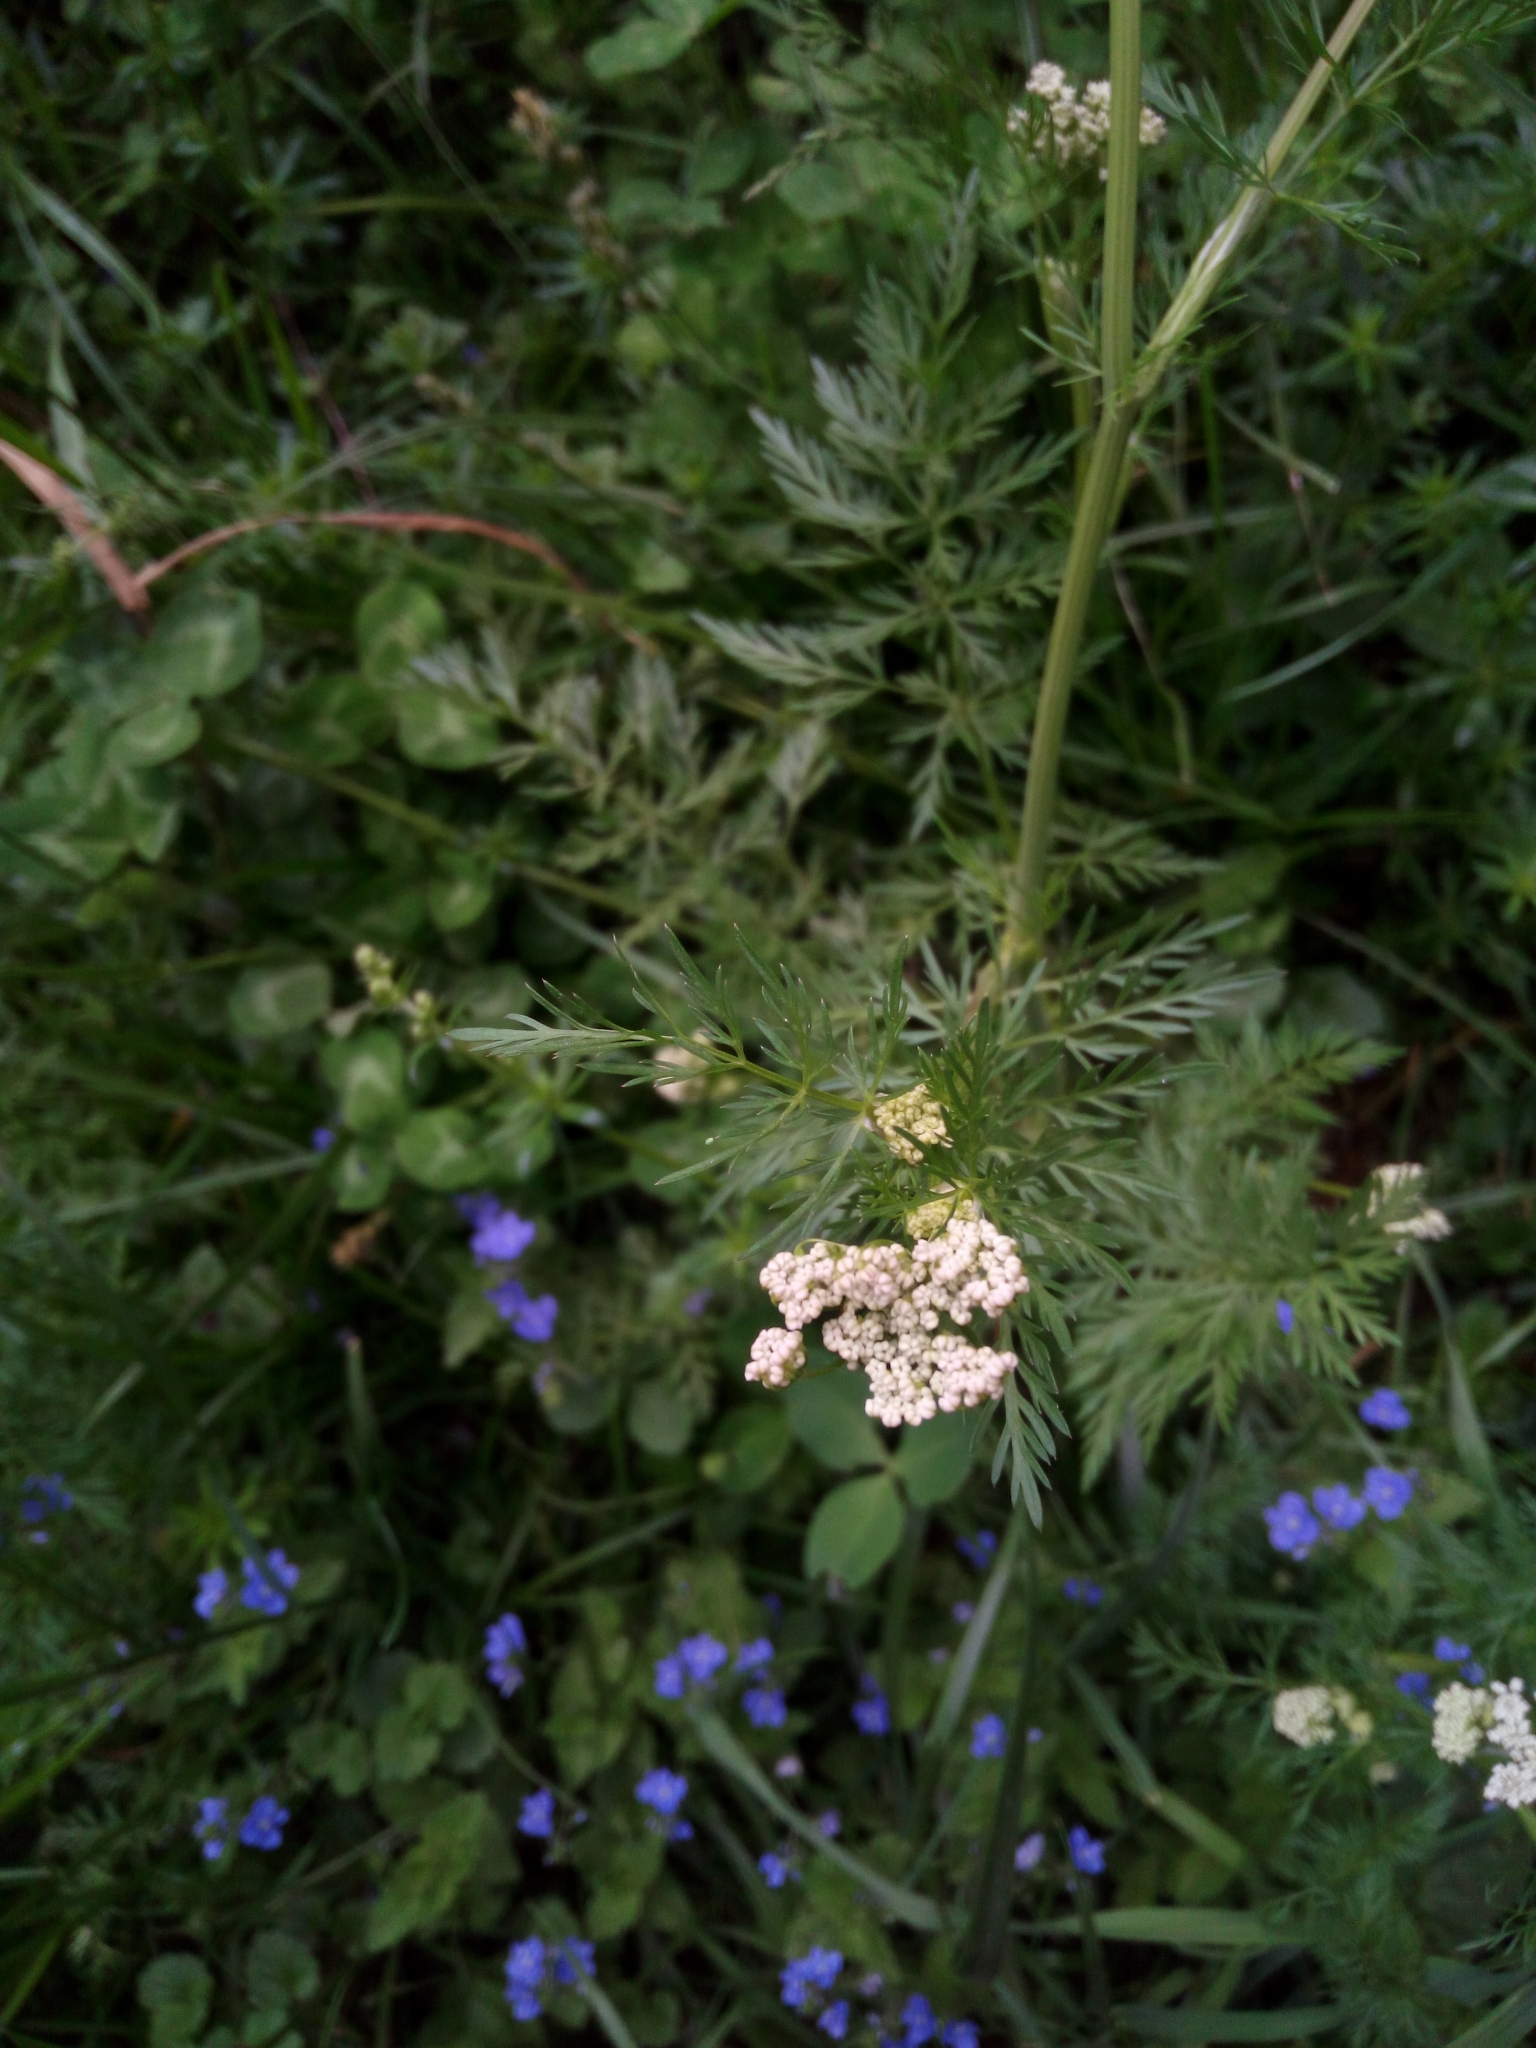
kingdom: Plantae
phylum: Tracheophyta
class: Magnoliopsida
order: Apiales
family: Apiaceae
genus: Carum
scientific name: Carum carvi
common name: Caraway
